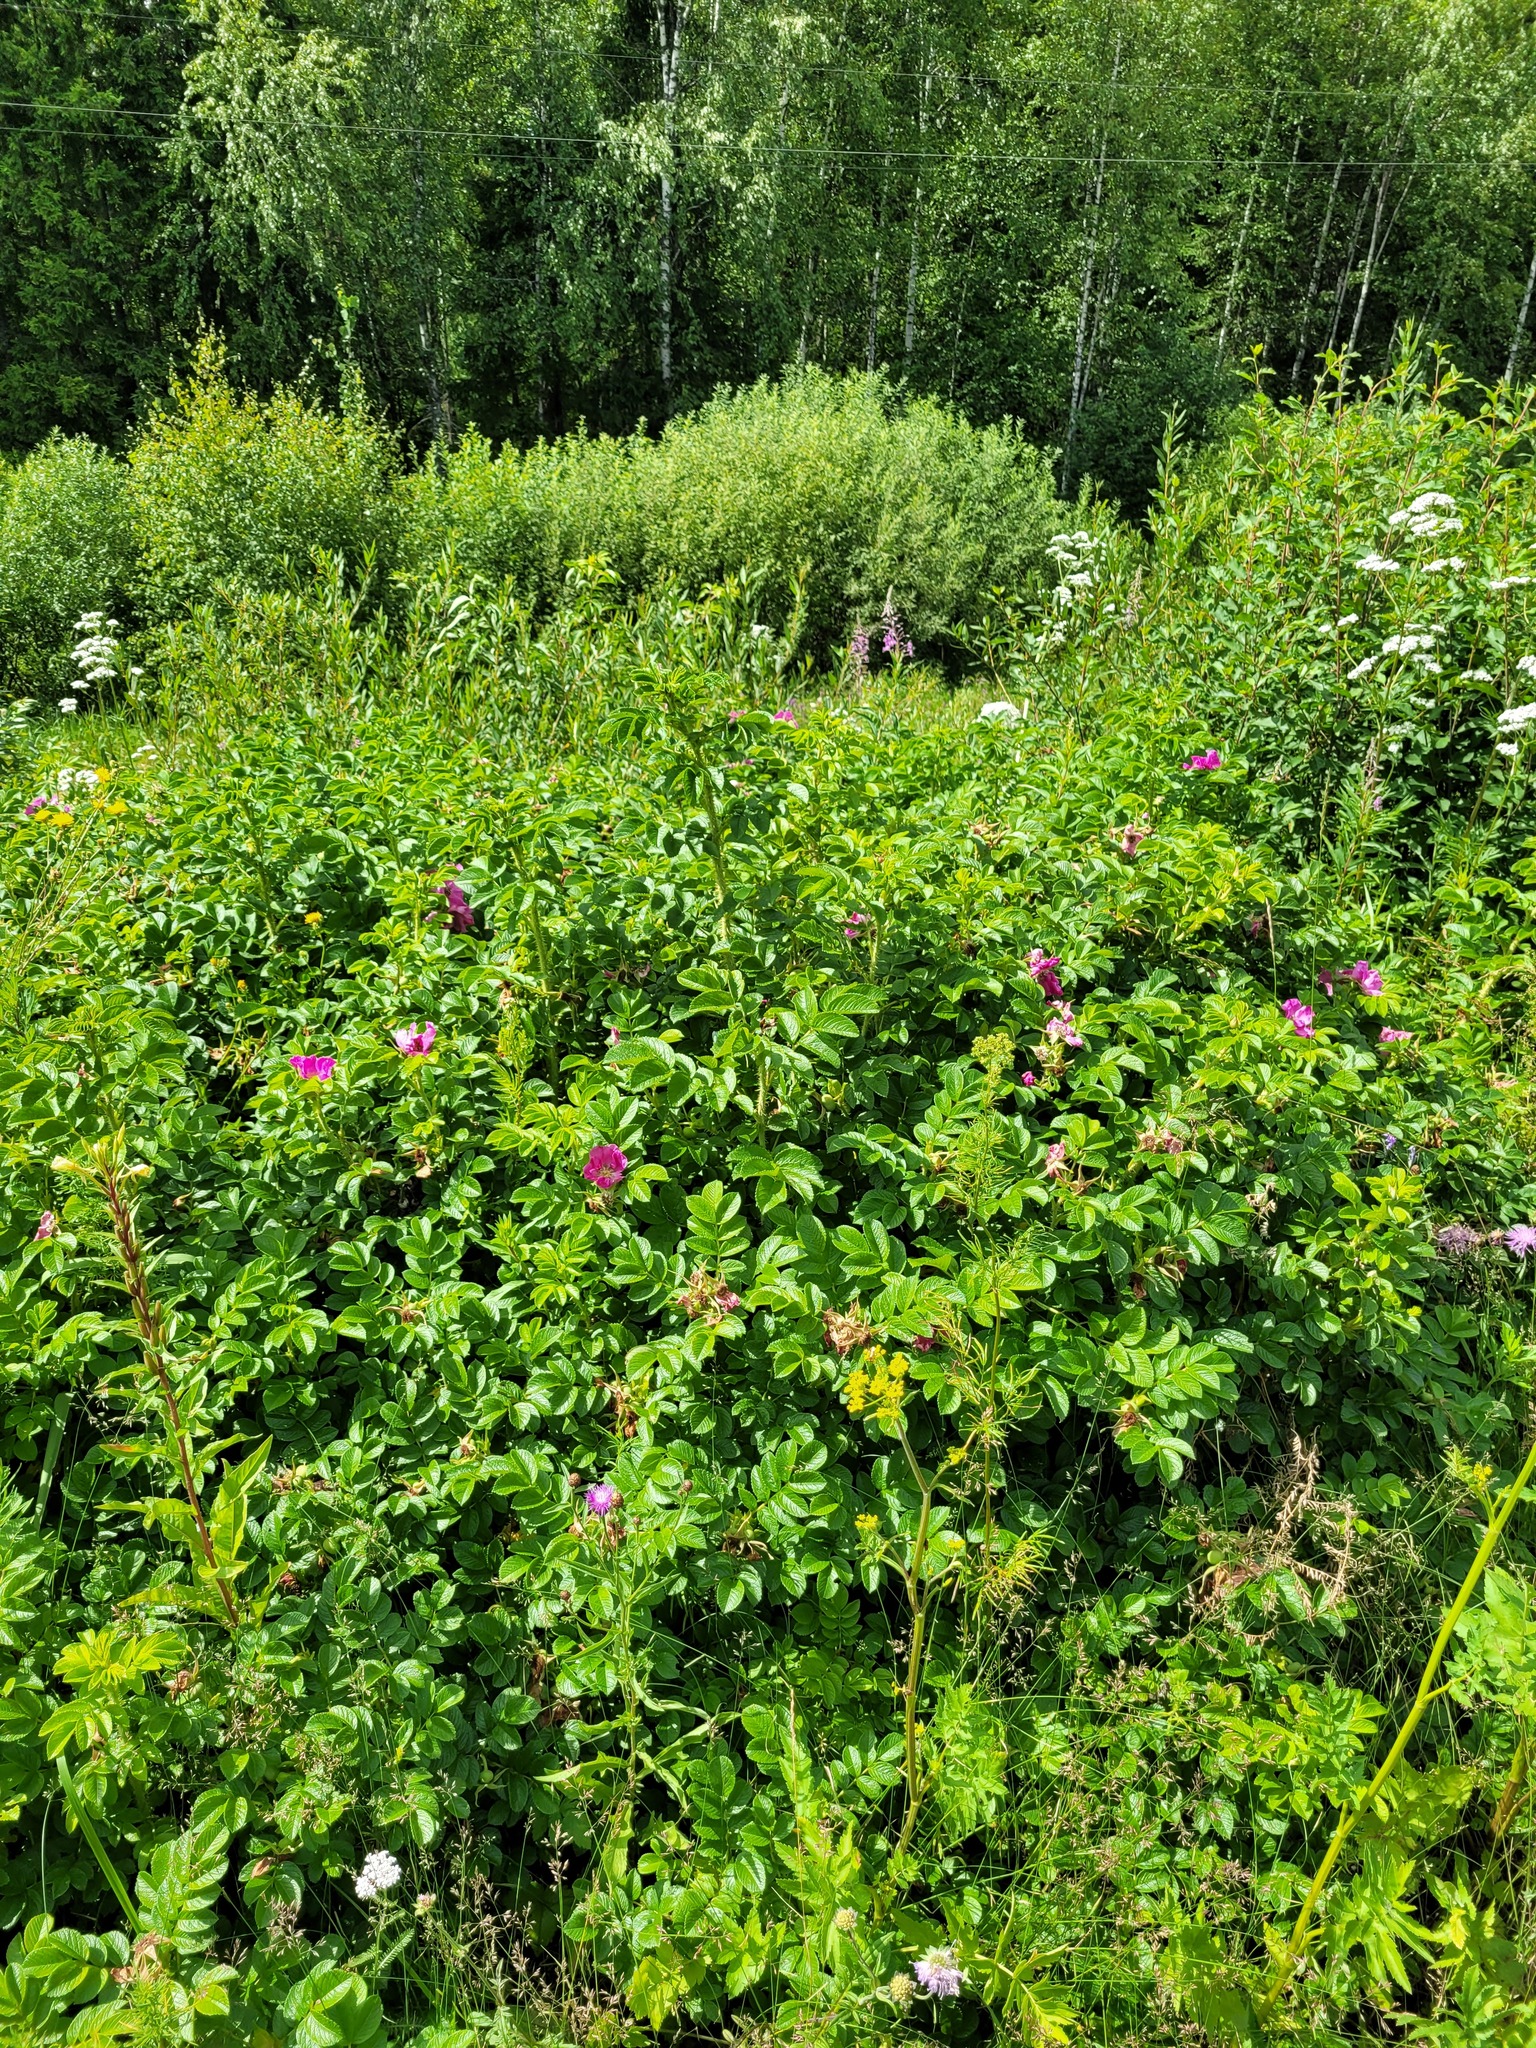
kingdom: Plantae
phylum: Tracheophyta
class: Magnoliopsida
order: Rosales
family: Rosaceae
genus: Rosa
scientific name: Rosa rugosa
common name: Japanese rose
